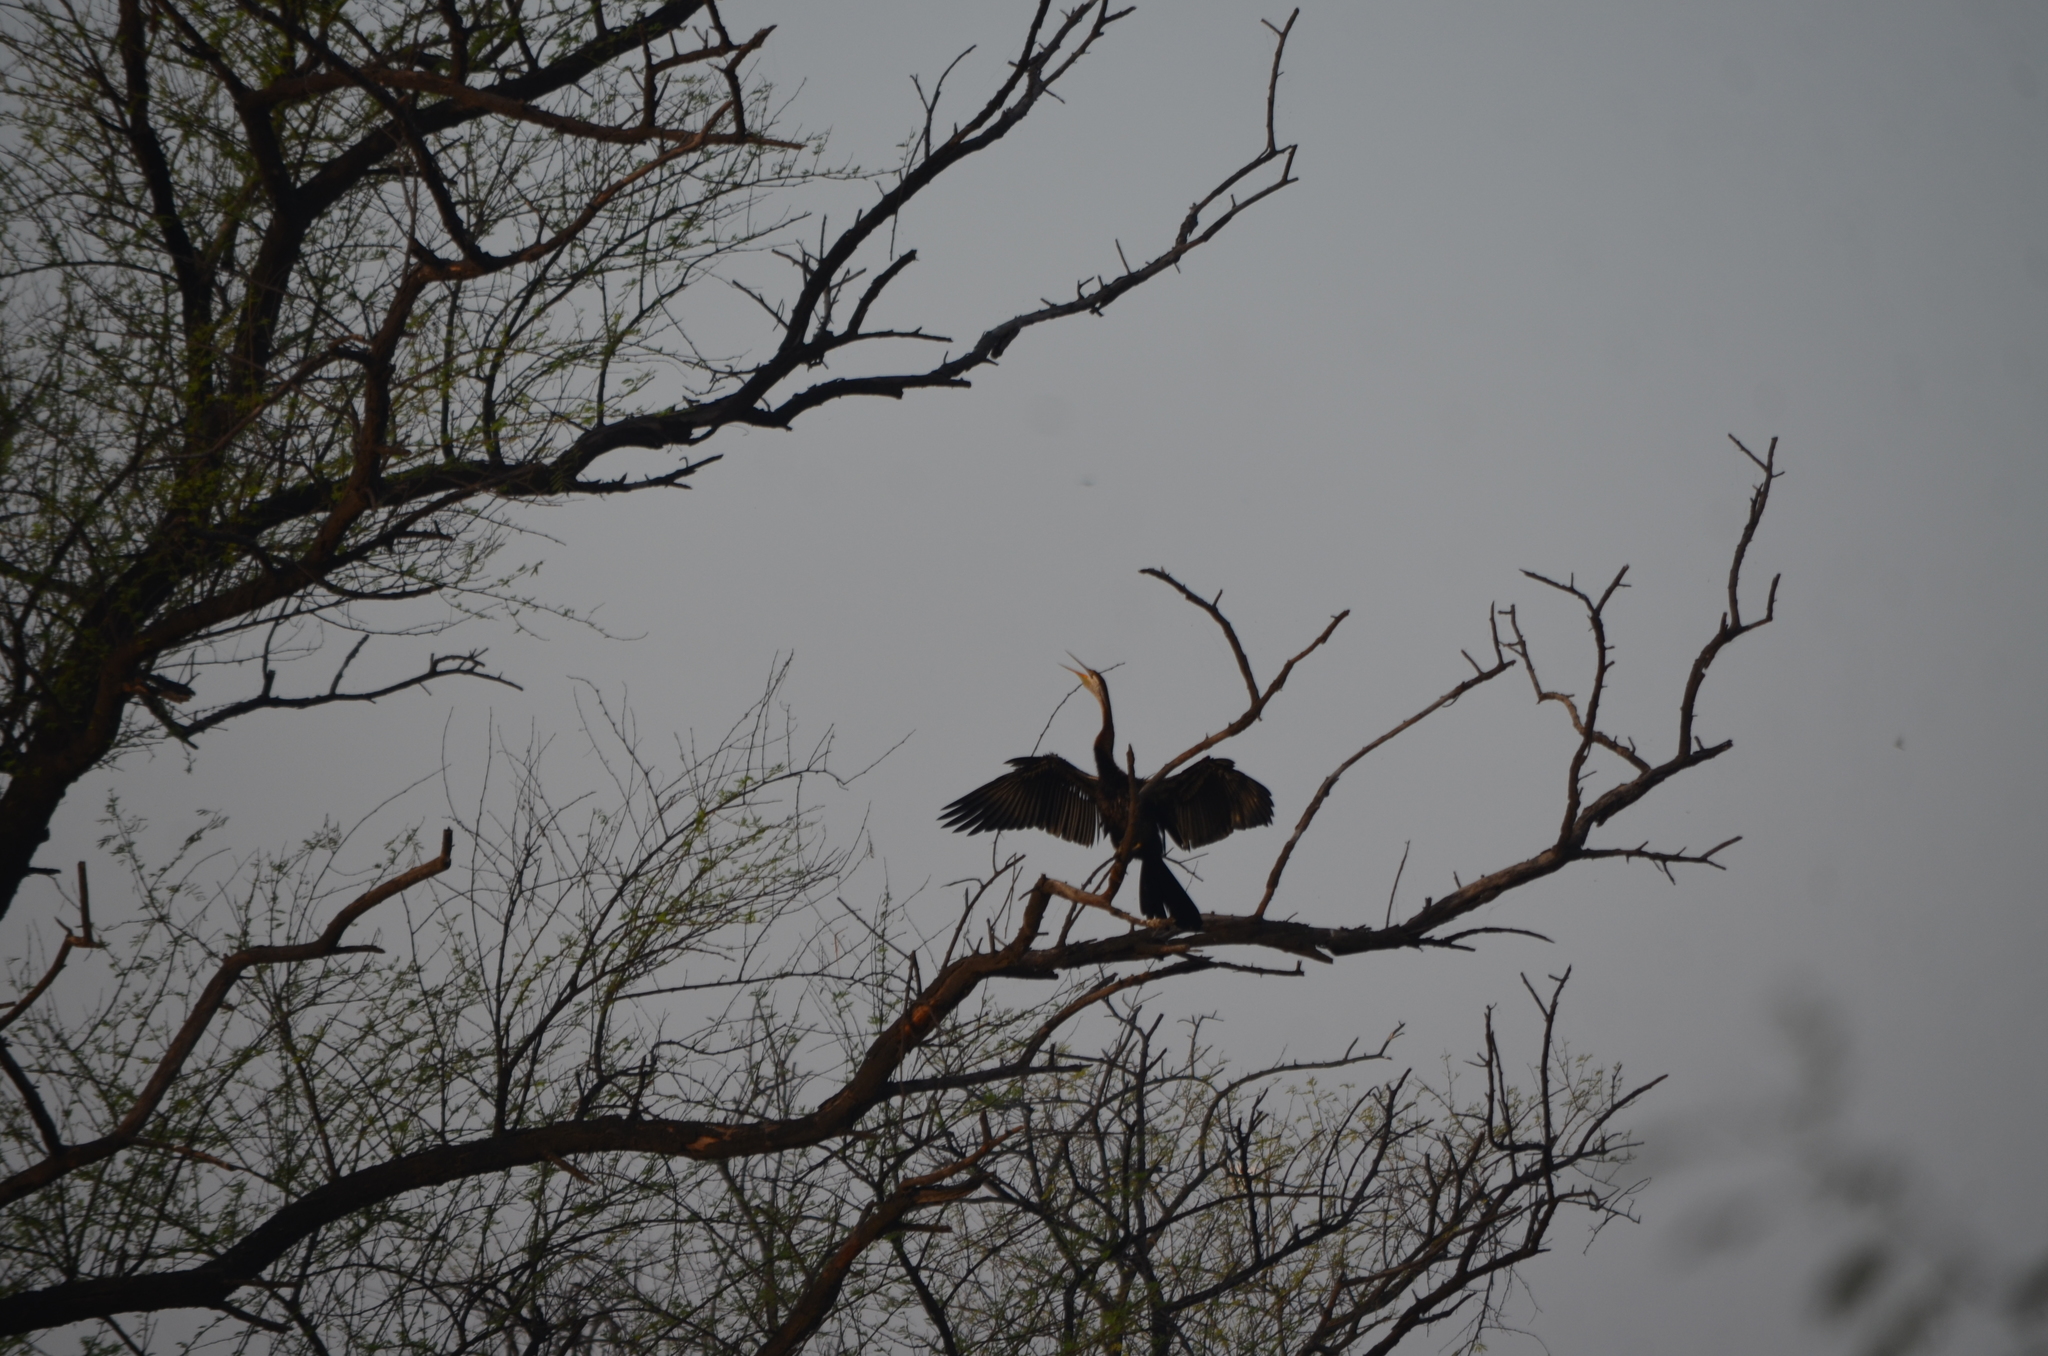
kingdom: Animalia
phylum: Chordata
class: Aves
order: Suliformes
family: Anhingidae
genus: Anhinga
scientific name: Anhinga melanogaster
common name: Oriental darter
